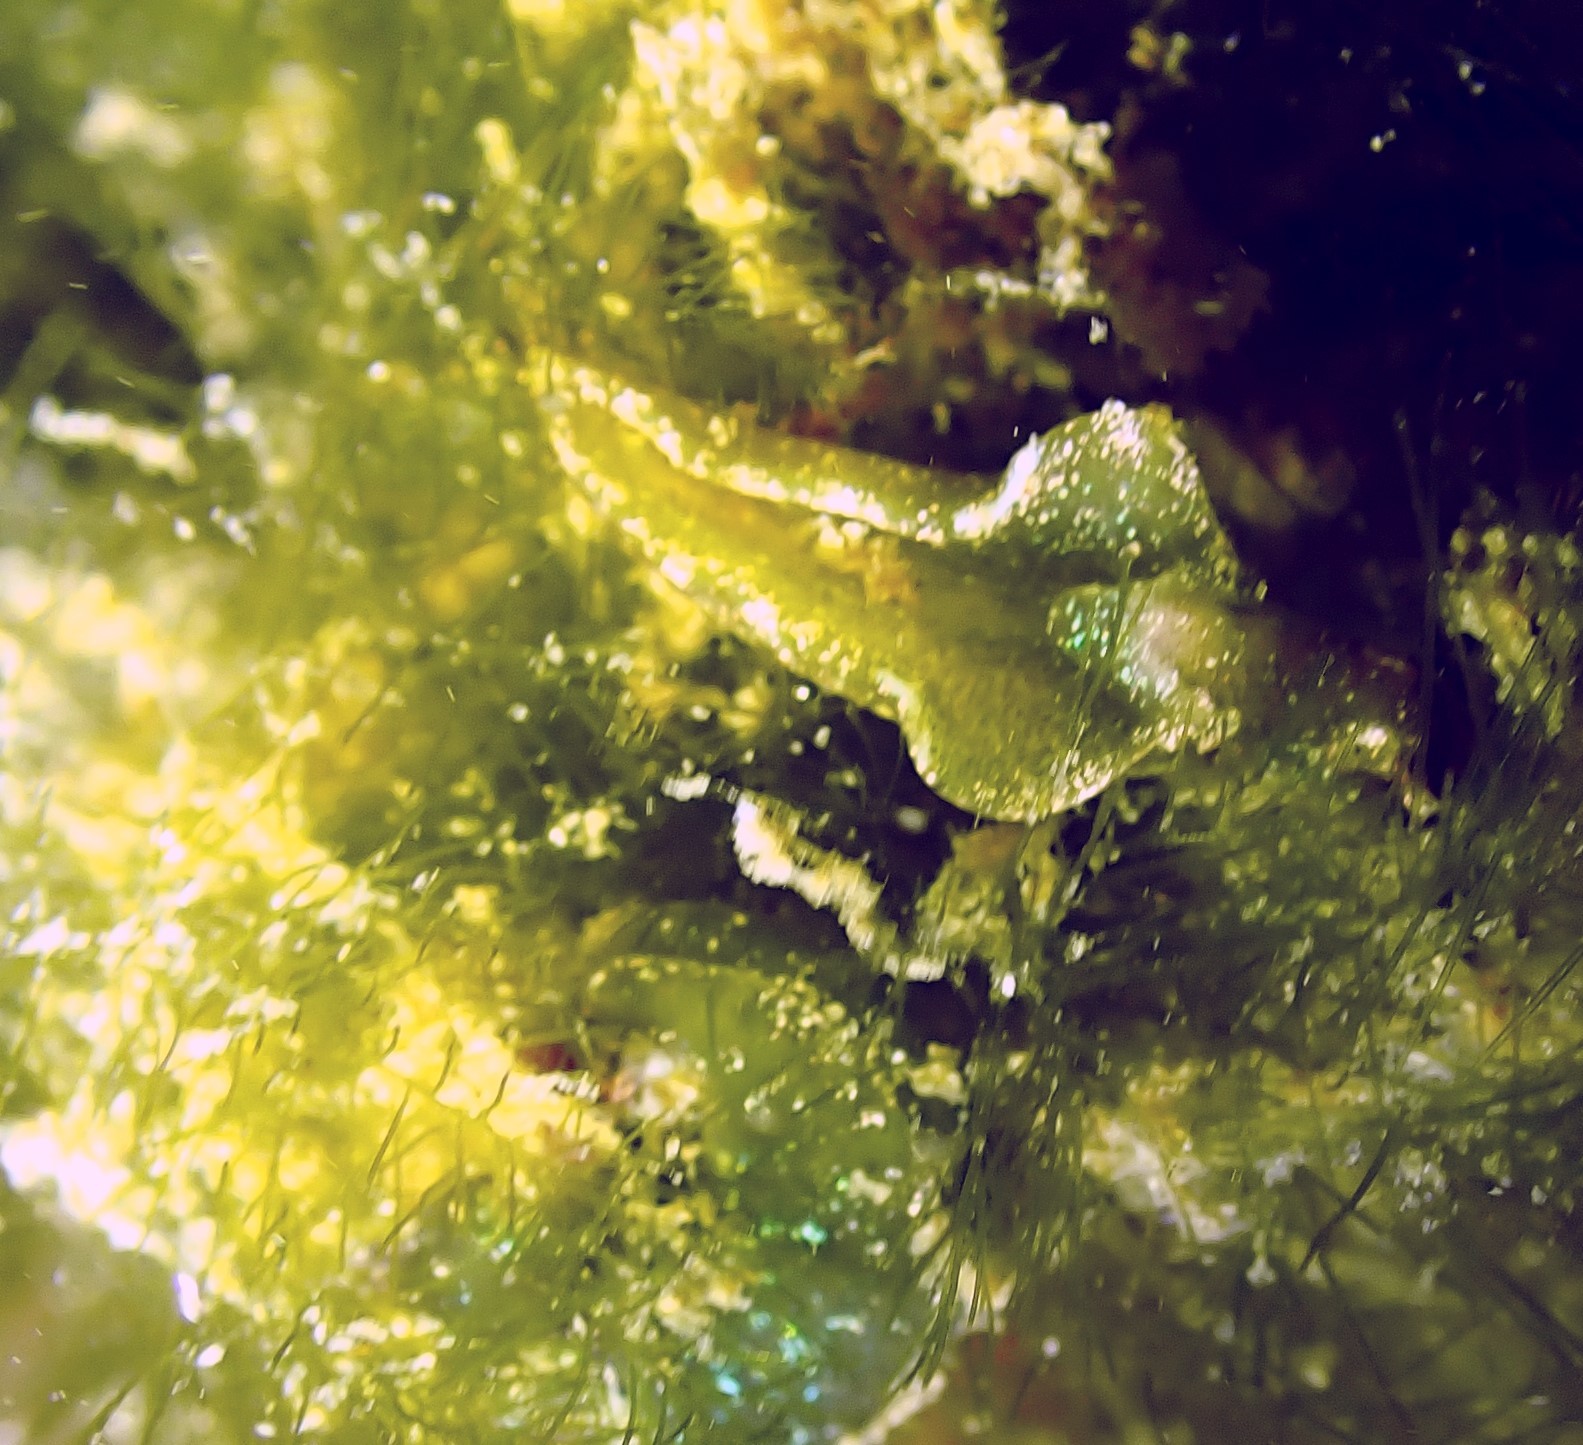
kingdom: Animalia
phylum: Mollusca
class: Gastropoda
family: Plakobranchidae
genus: Elysia
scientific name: Elysia viridis
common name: Green elysia
